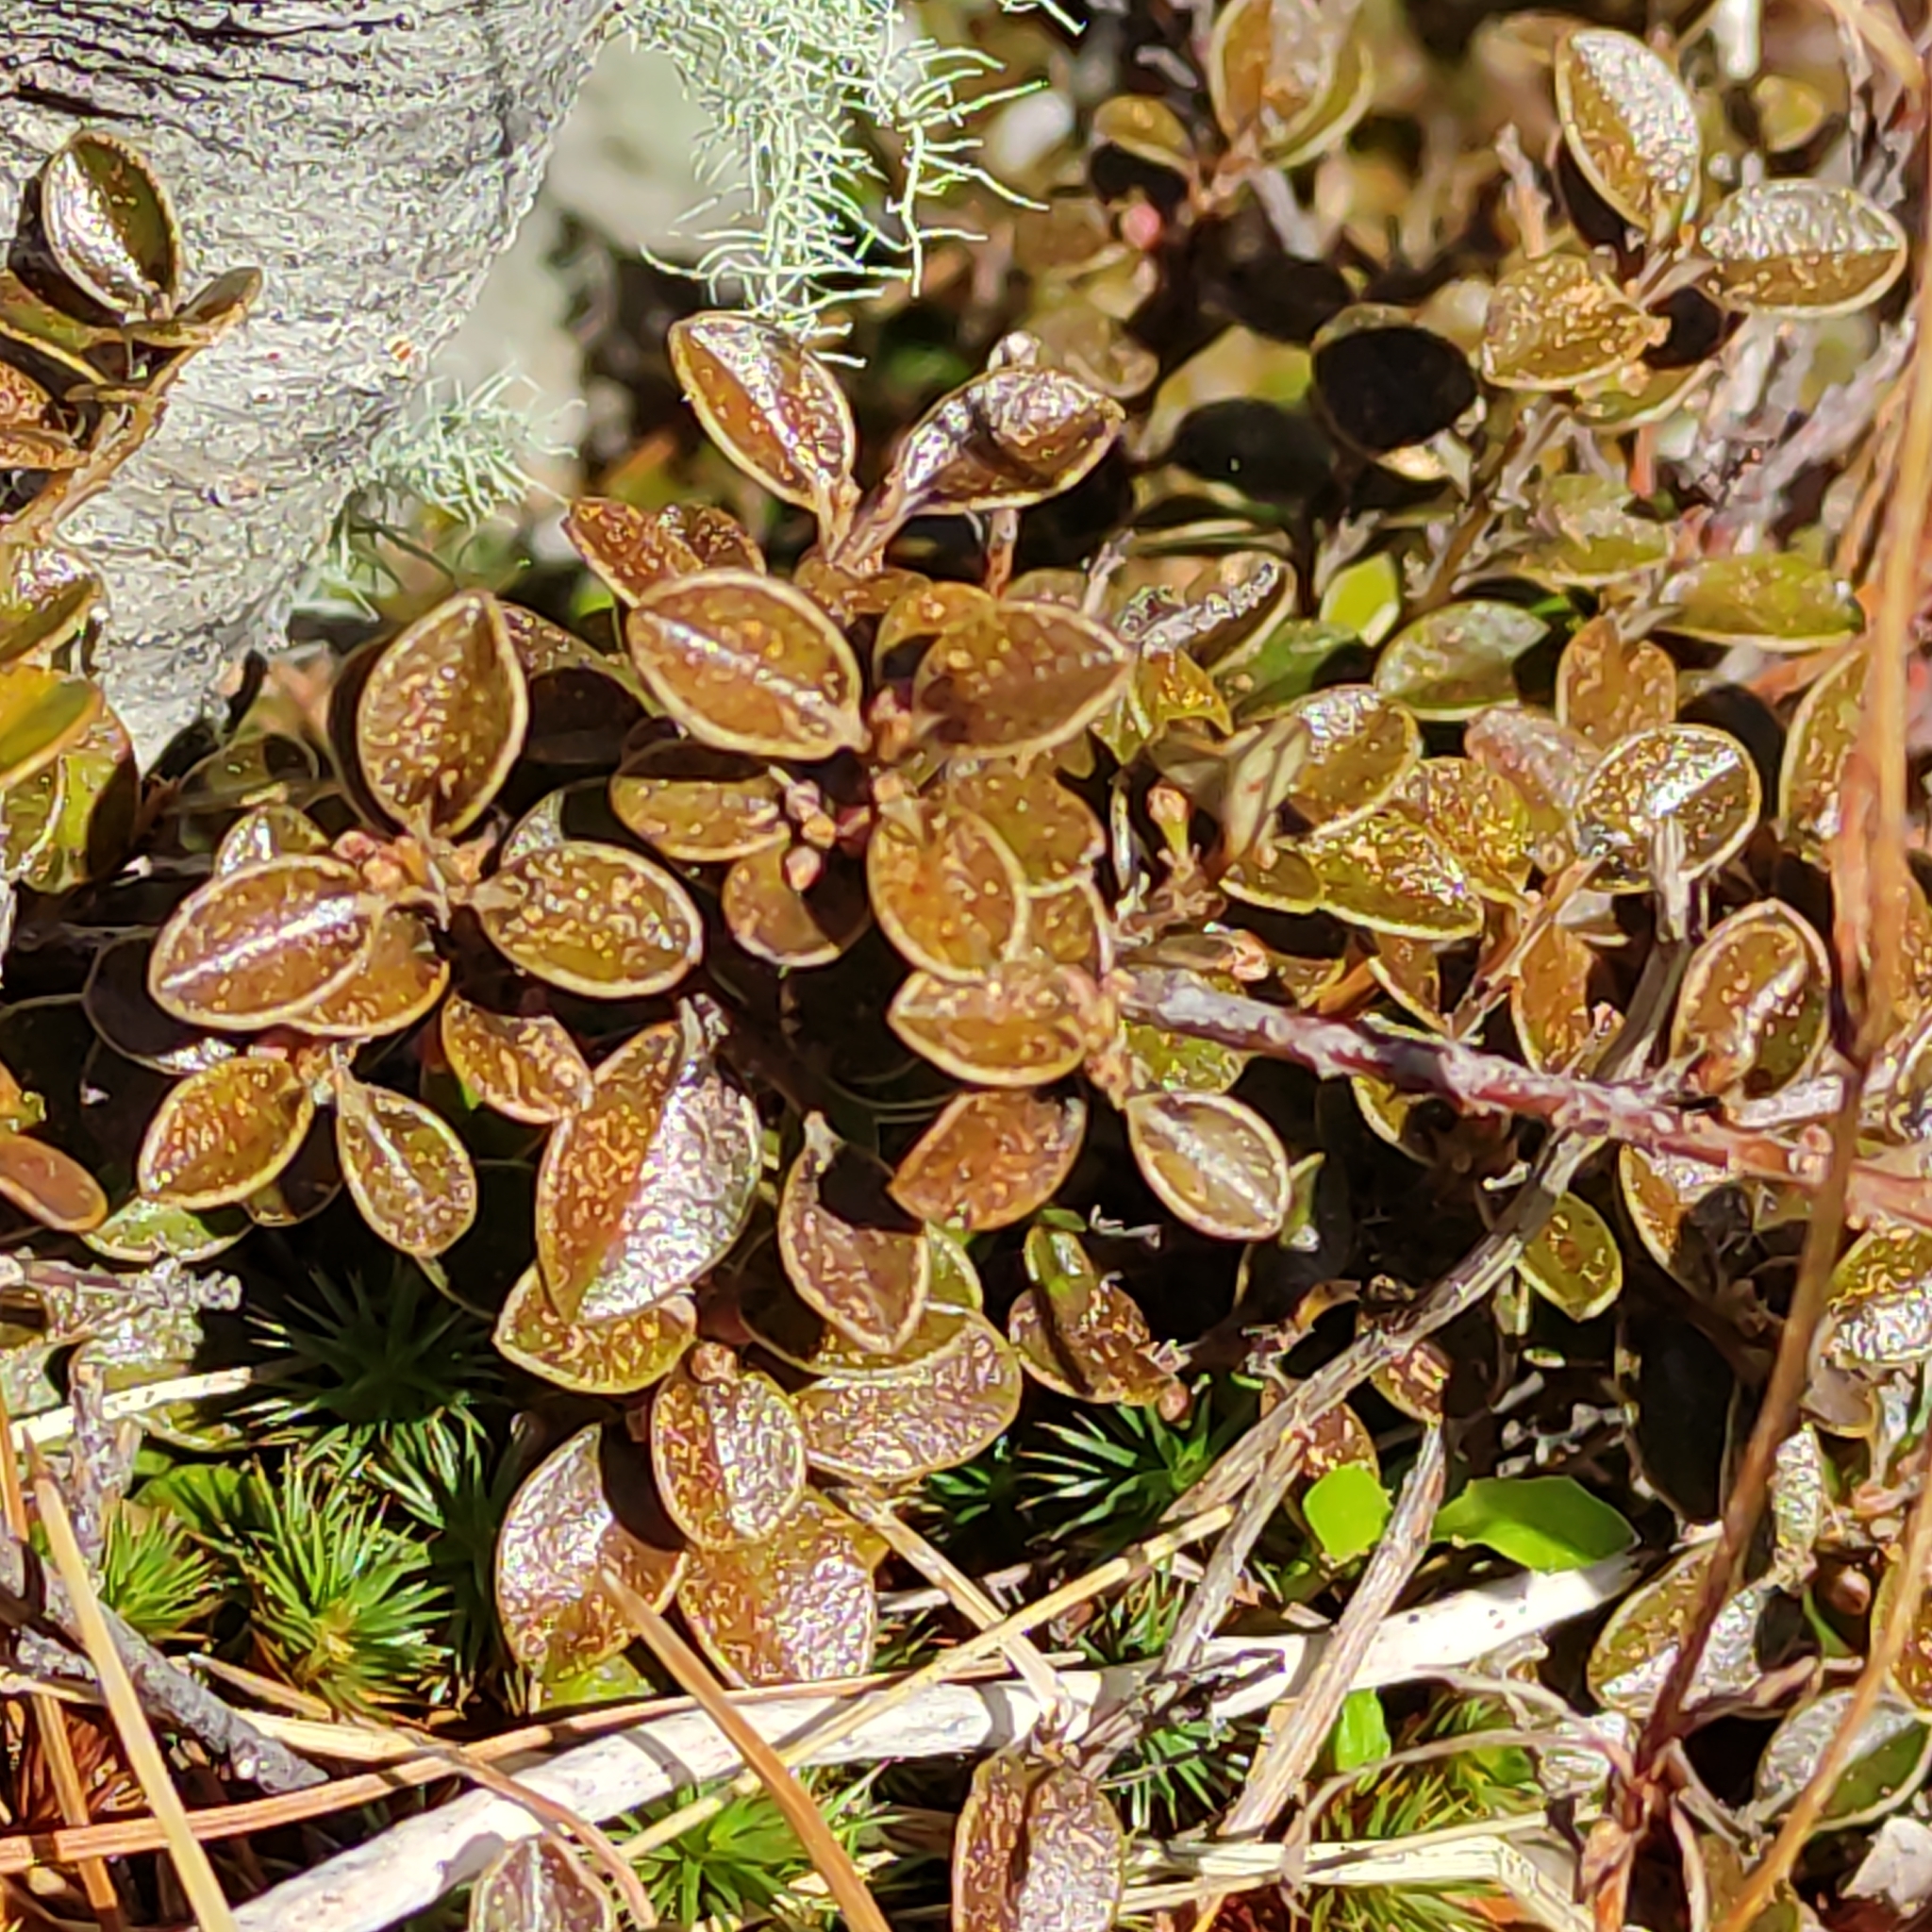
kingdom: Plantae
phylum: Tracheophyta
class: Magnoliopsida
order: Ericales
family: Primulaceae
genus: Myrsine
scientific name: Myrsine nummularia
